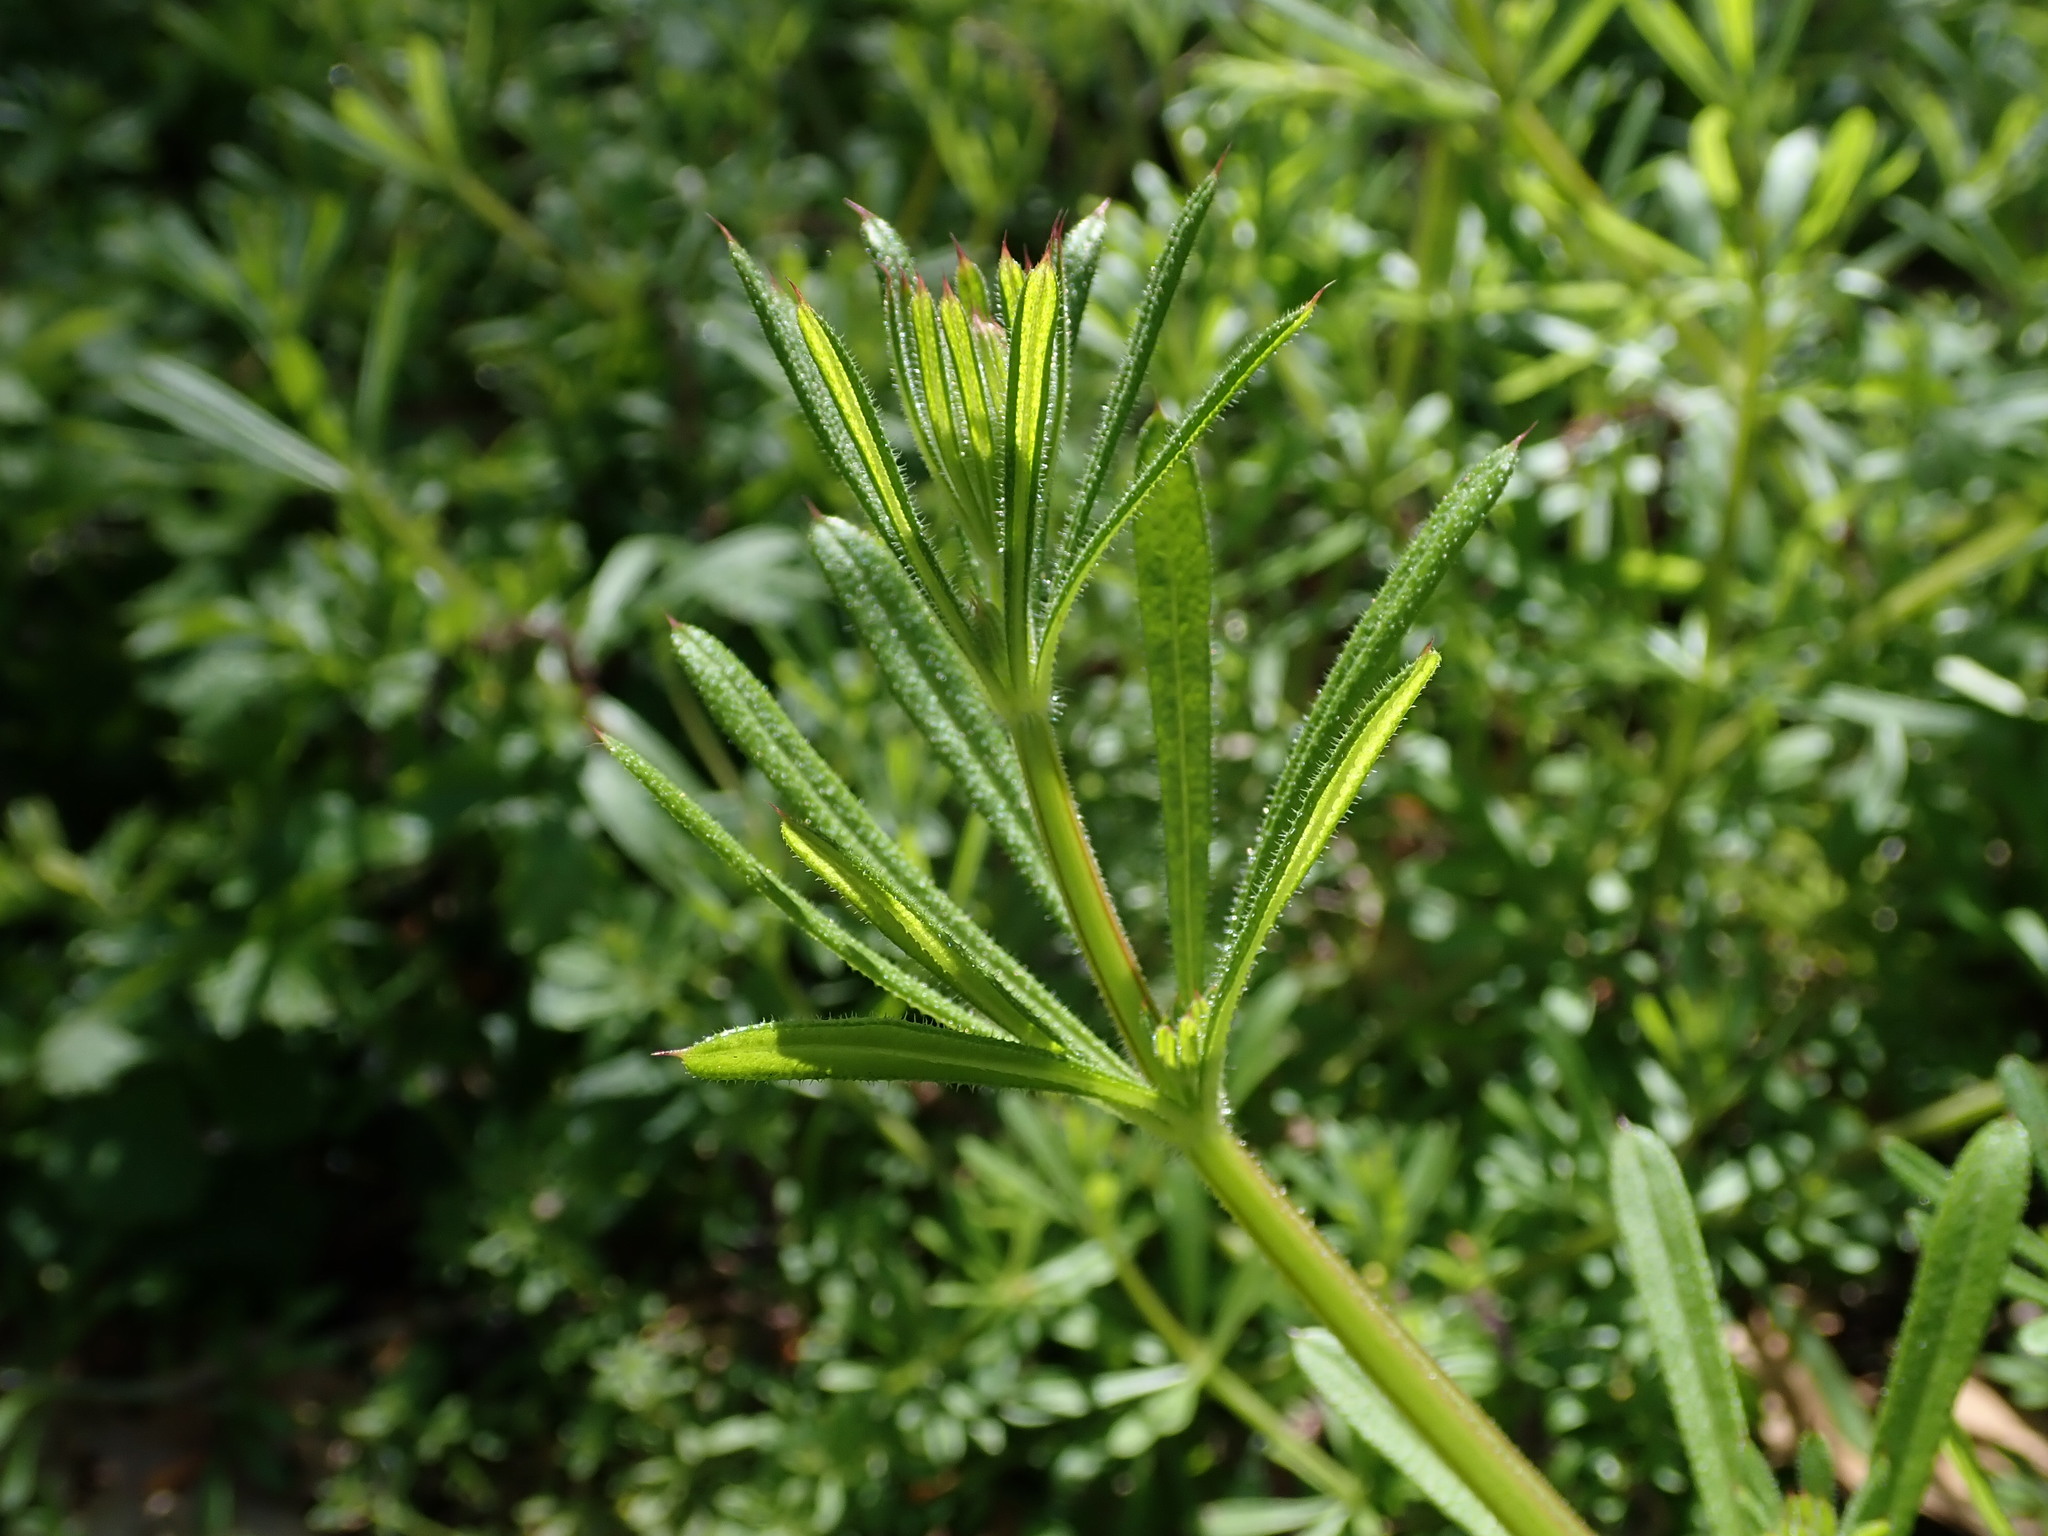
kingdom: Plantae
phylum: Tracheophyta
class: Magnoliopsida
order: Gentianales
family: Rubiaceae
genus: Galium
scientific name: Galium aparine
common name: Cleavers
